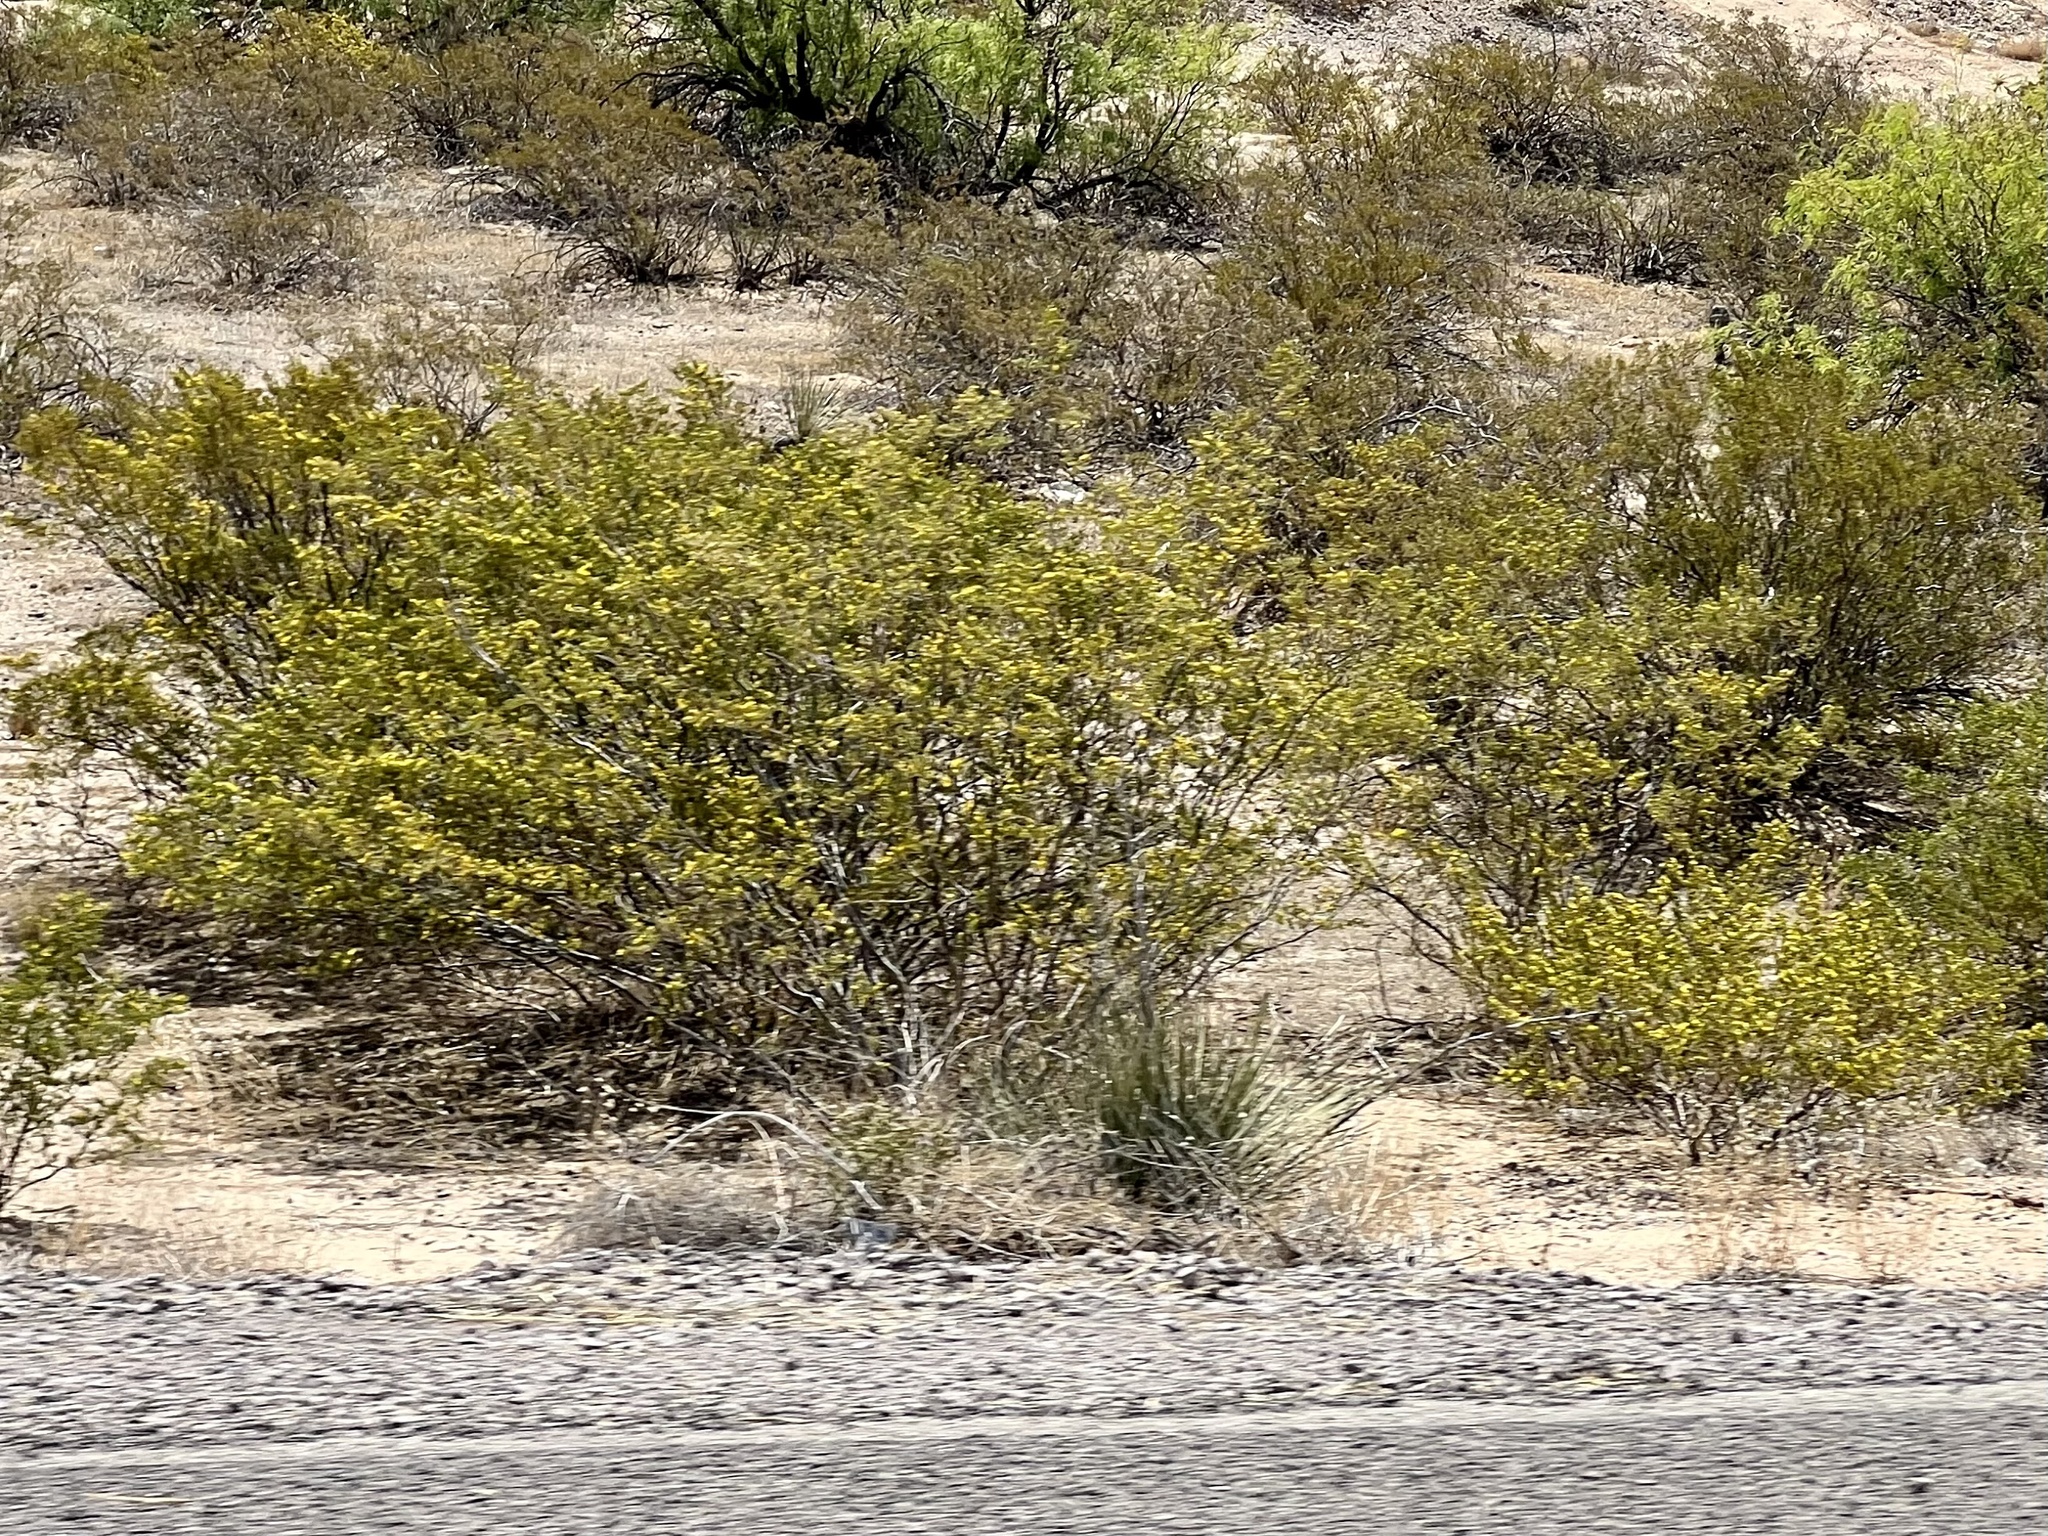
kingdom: Plantae
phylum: Tracheophyta
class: Magnoliopsida
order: Zygophyllales
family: Zygophyllaceae
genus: Larrea
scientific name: Larrea tridentata
